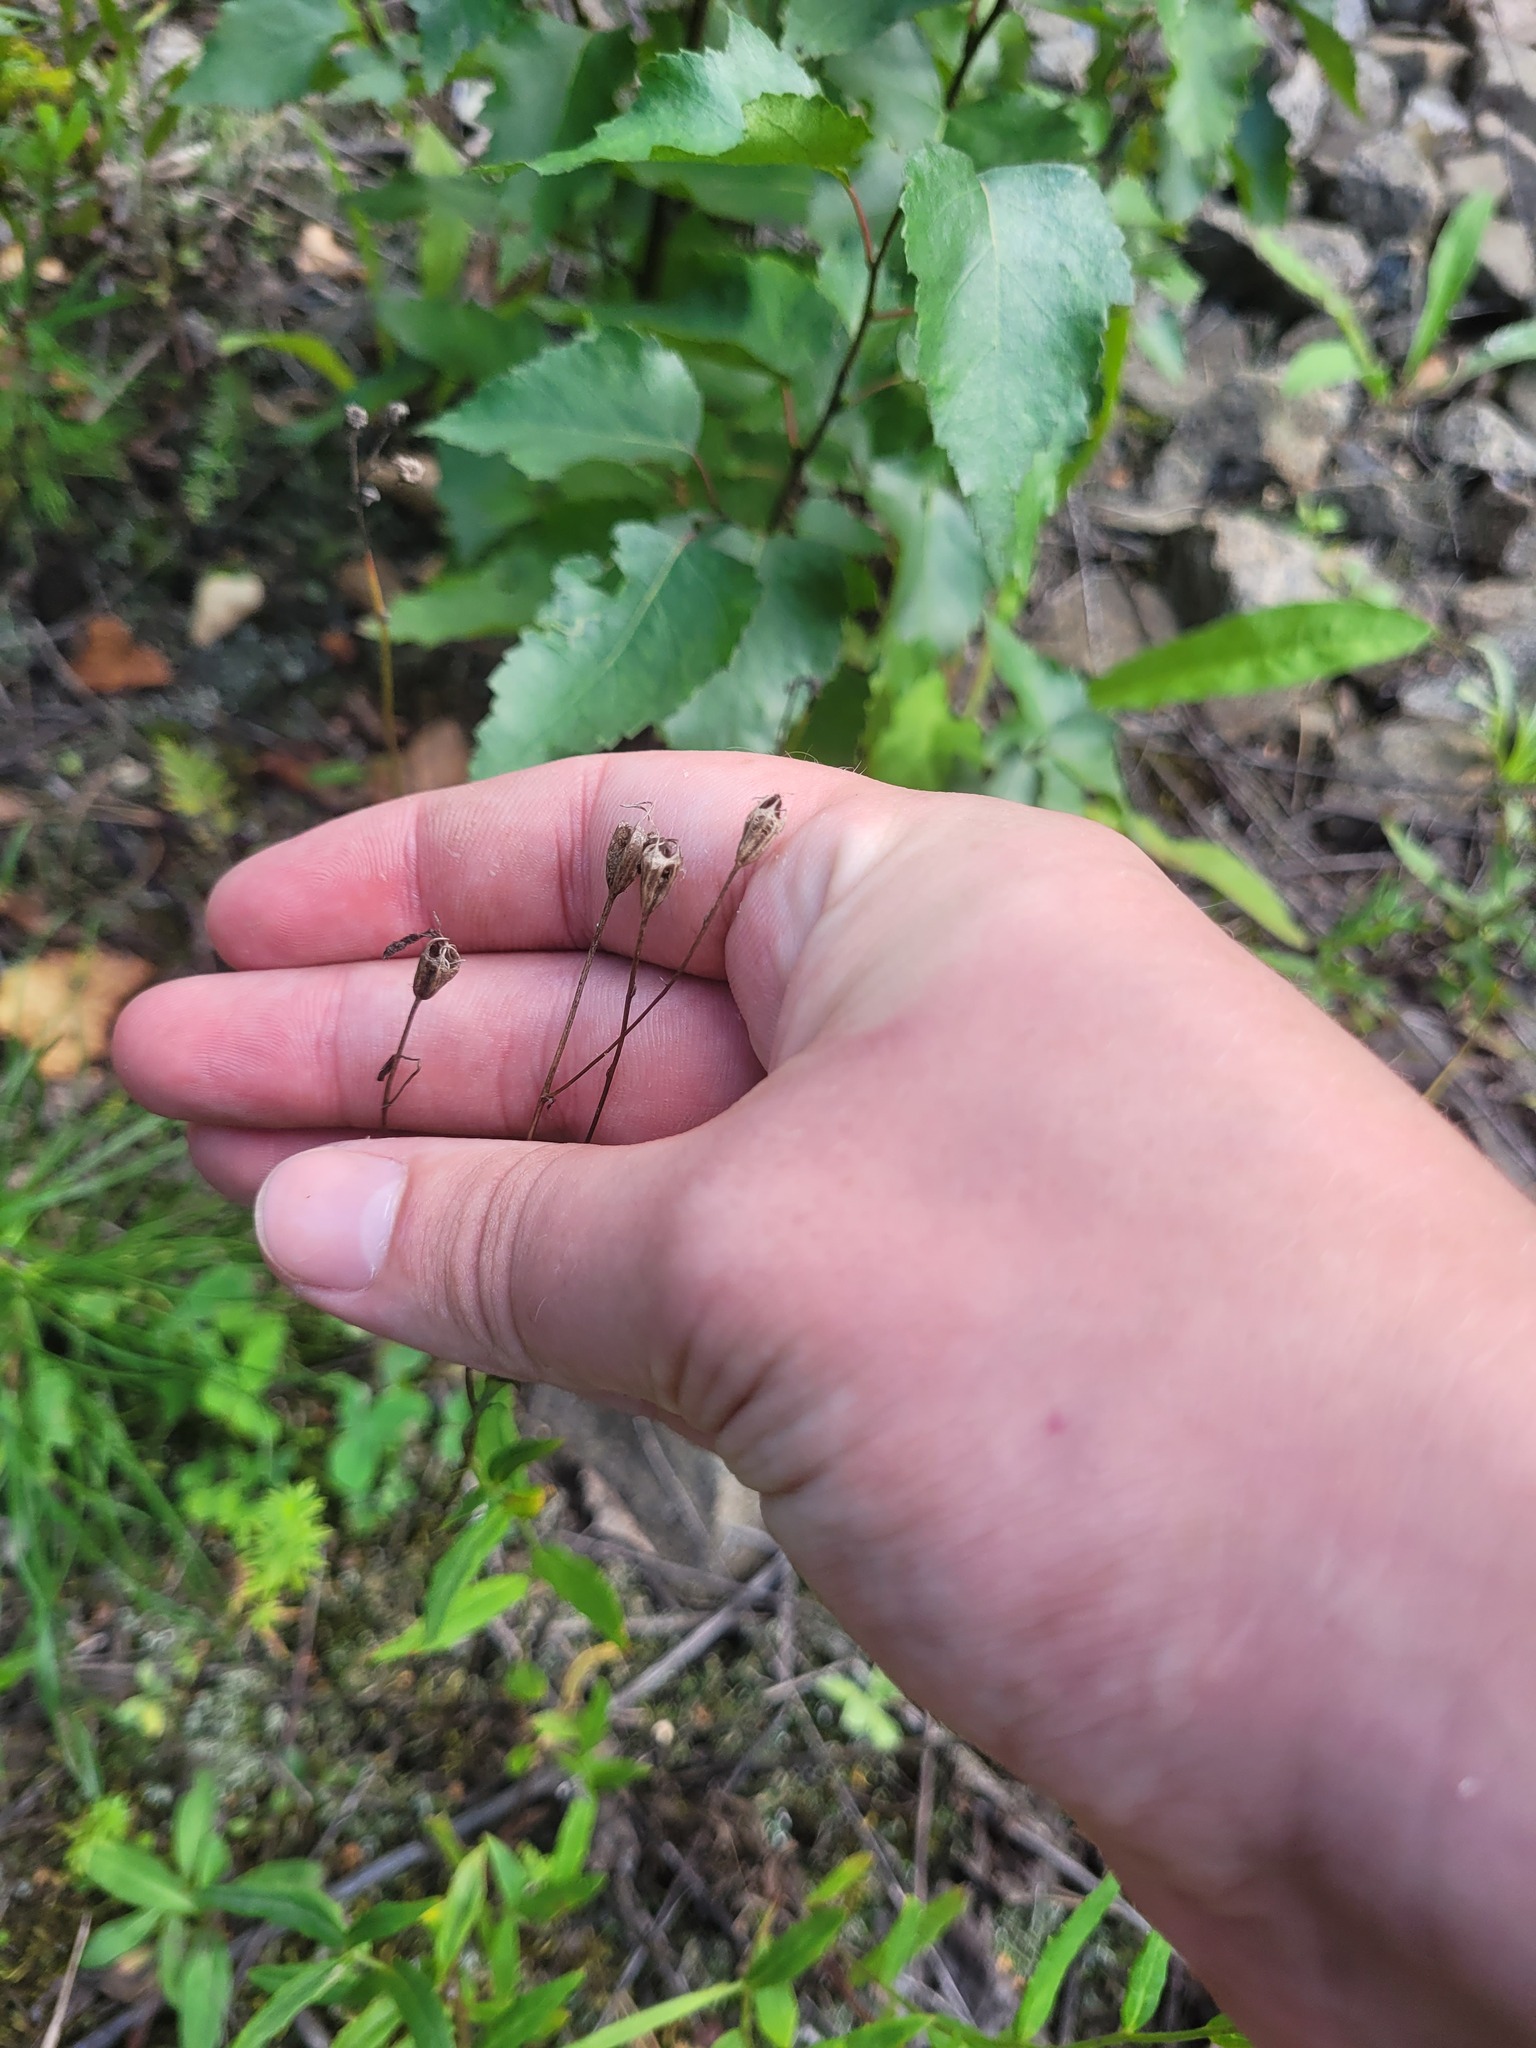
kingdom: Plantae
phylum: Tracheophyta
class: Magnoliopsida
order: Asterales
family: Campanulaceae
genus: Campanula
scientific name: Campanula patula
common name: Spreading bellflower
